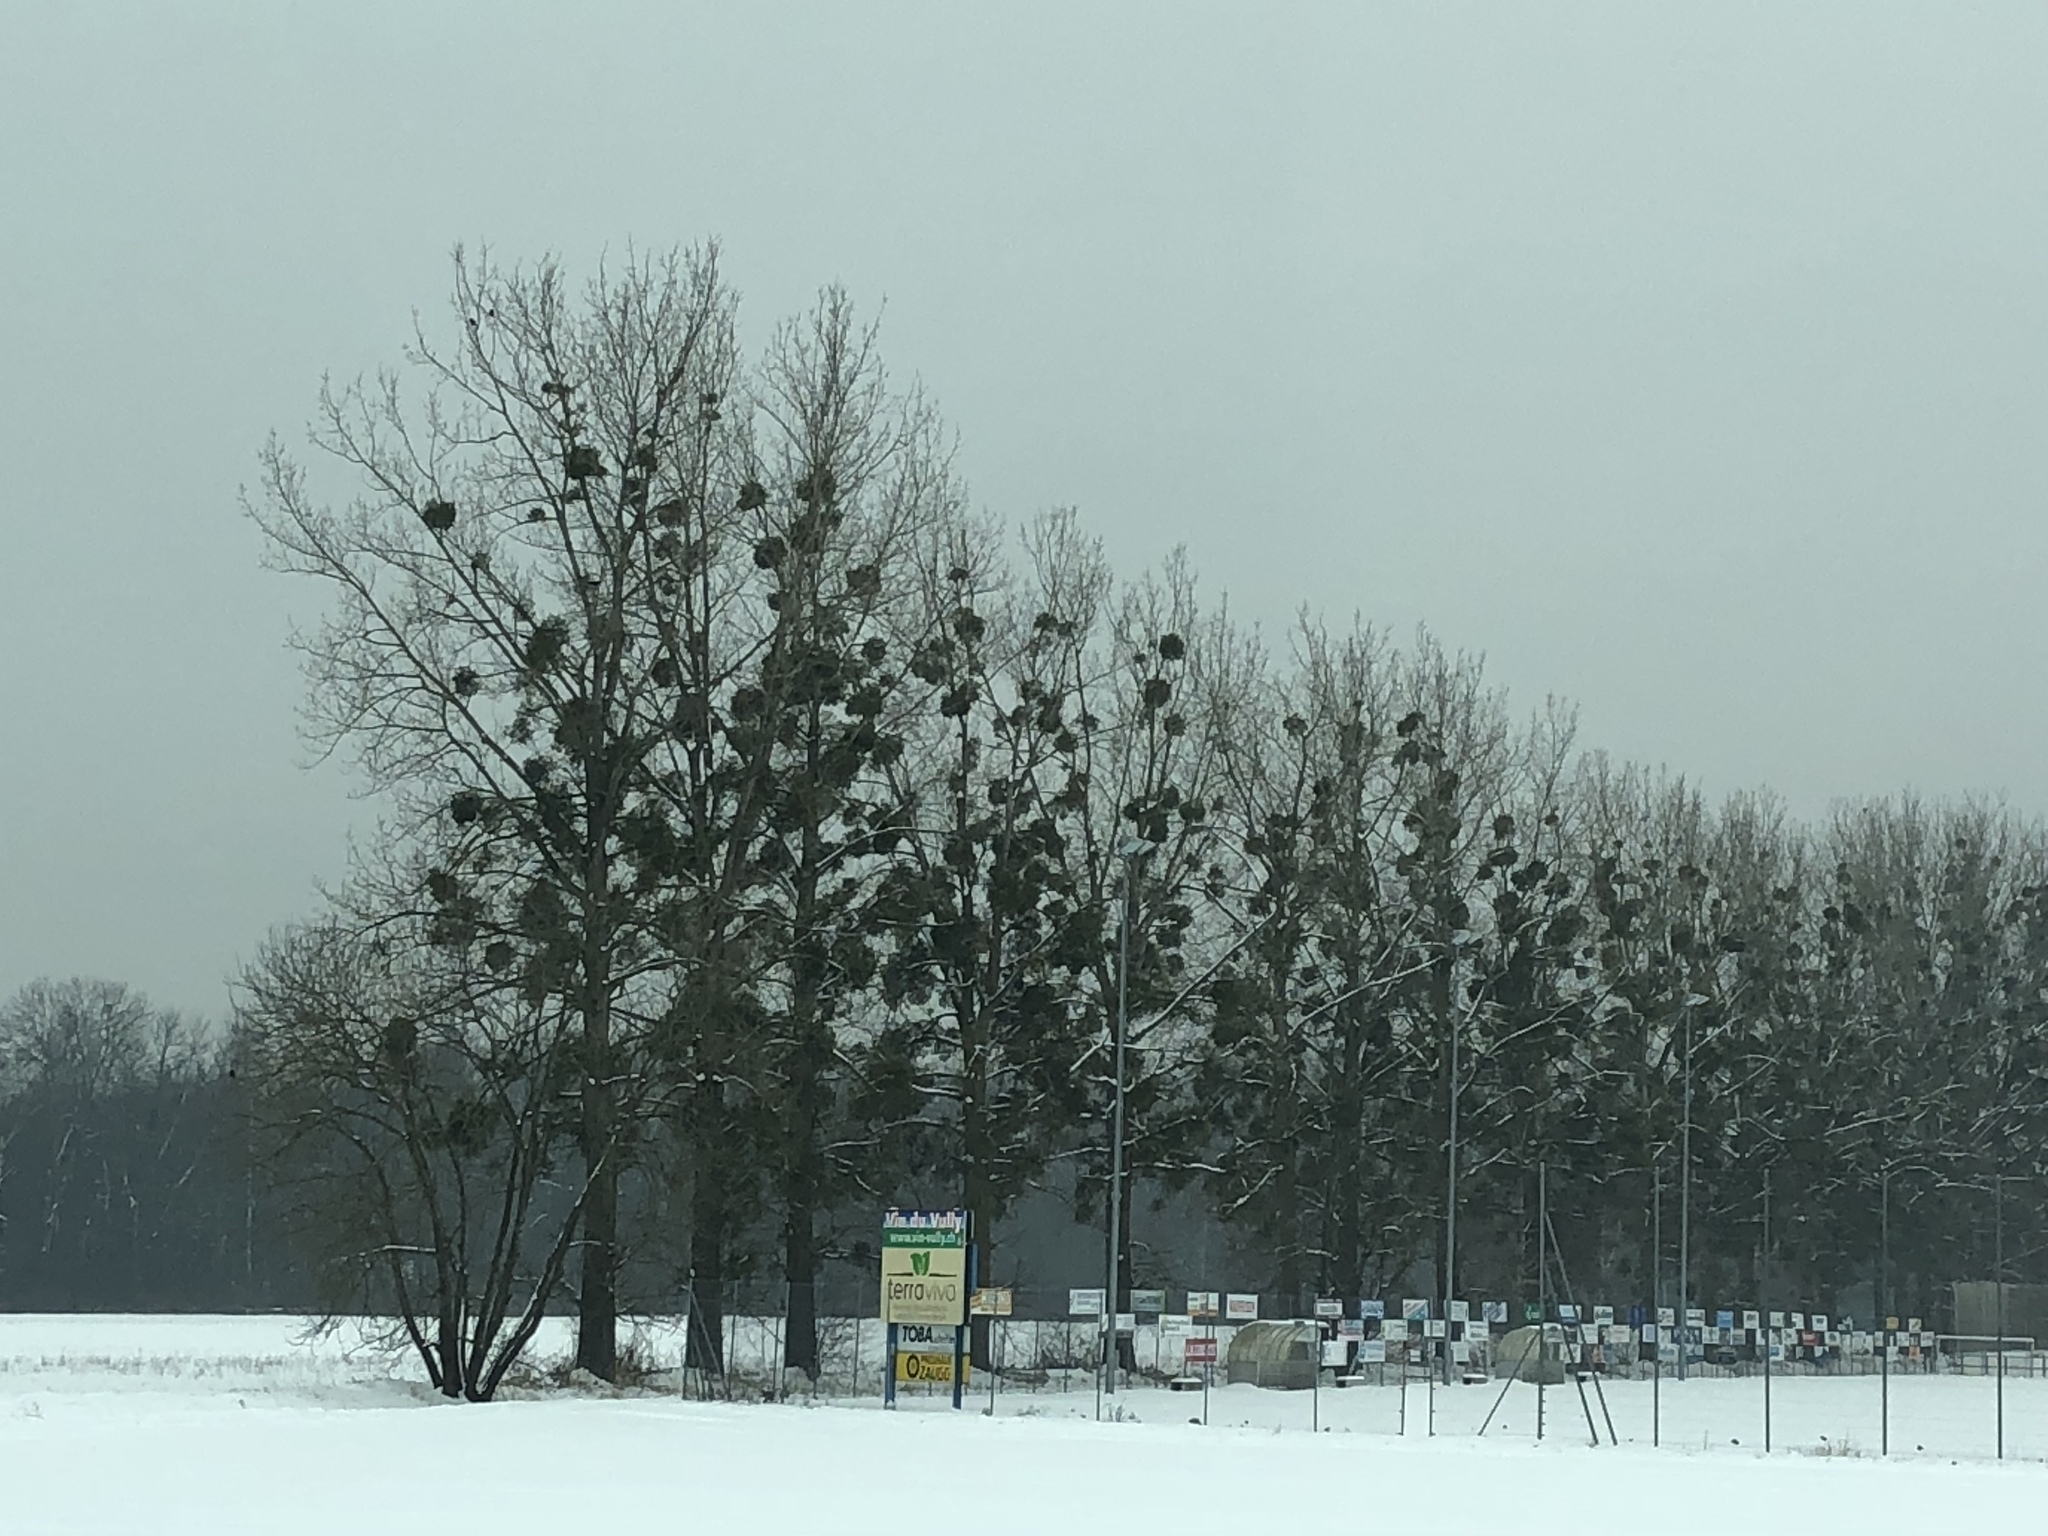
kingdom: Plantae
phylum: Tracheophyta
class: Magnoliopsida
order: Santalales
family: Viscaceae
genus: Viscum
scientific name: Viscum album
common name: Mistletoe
